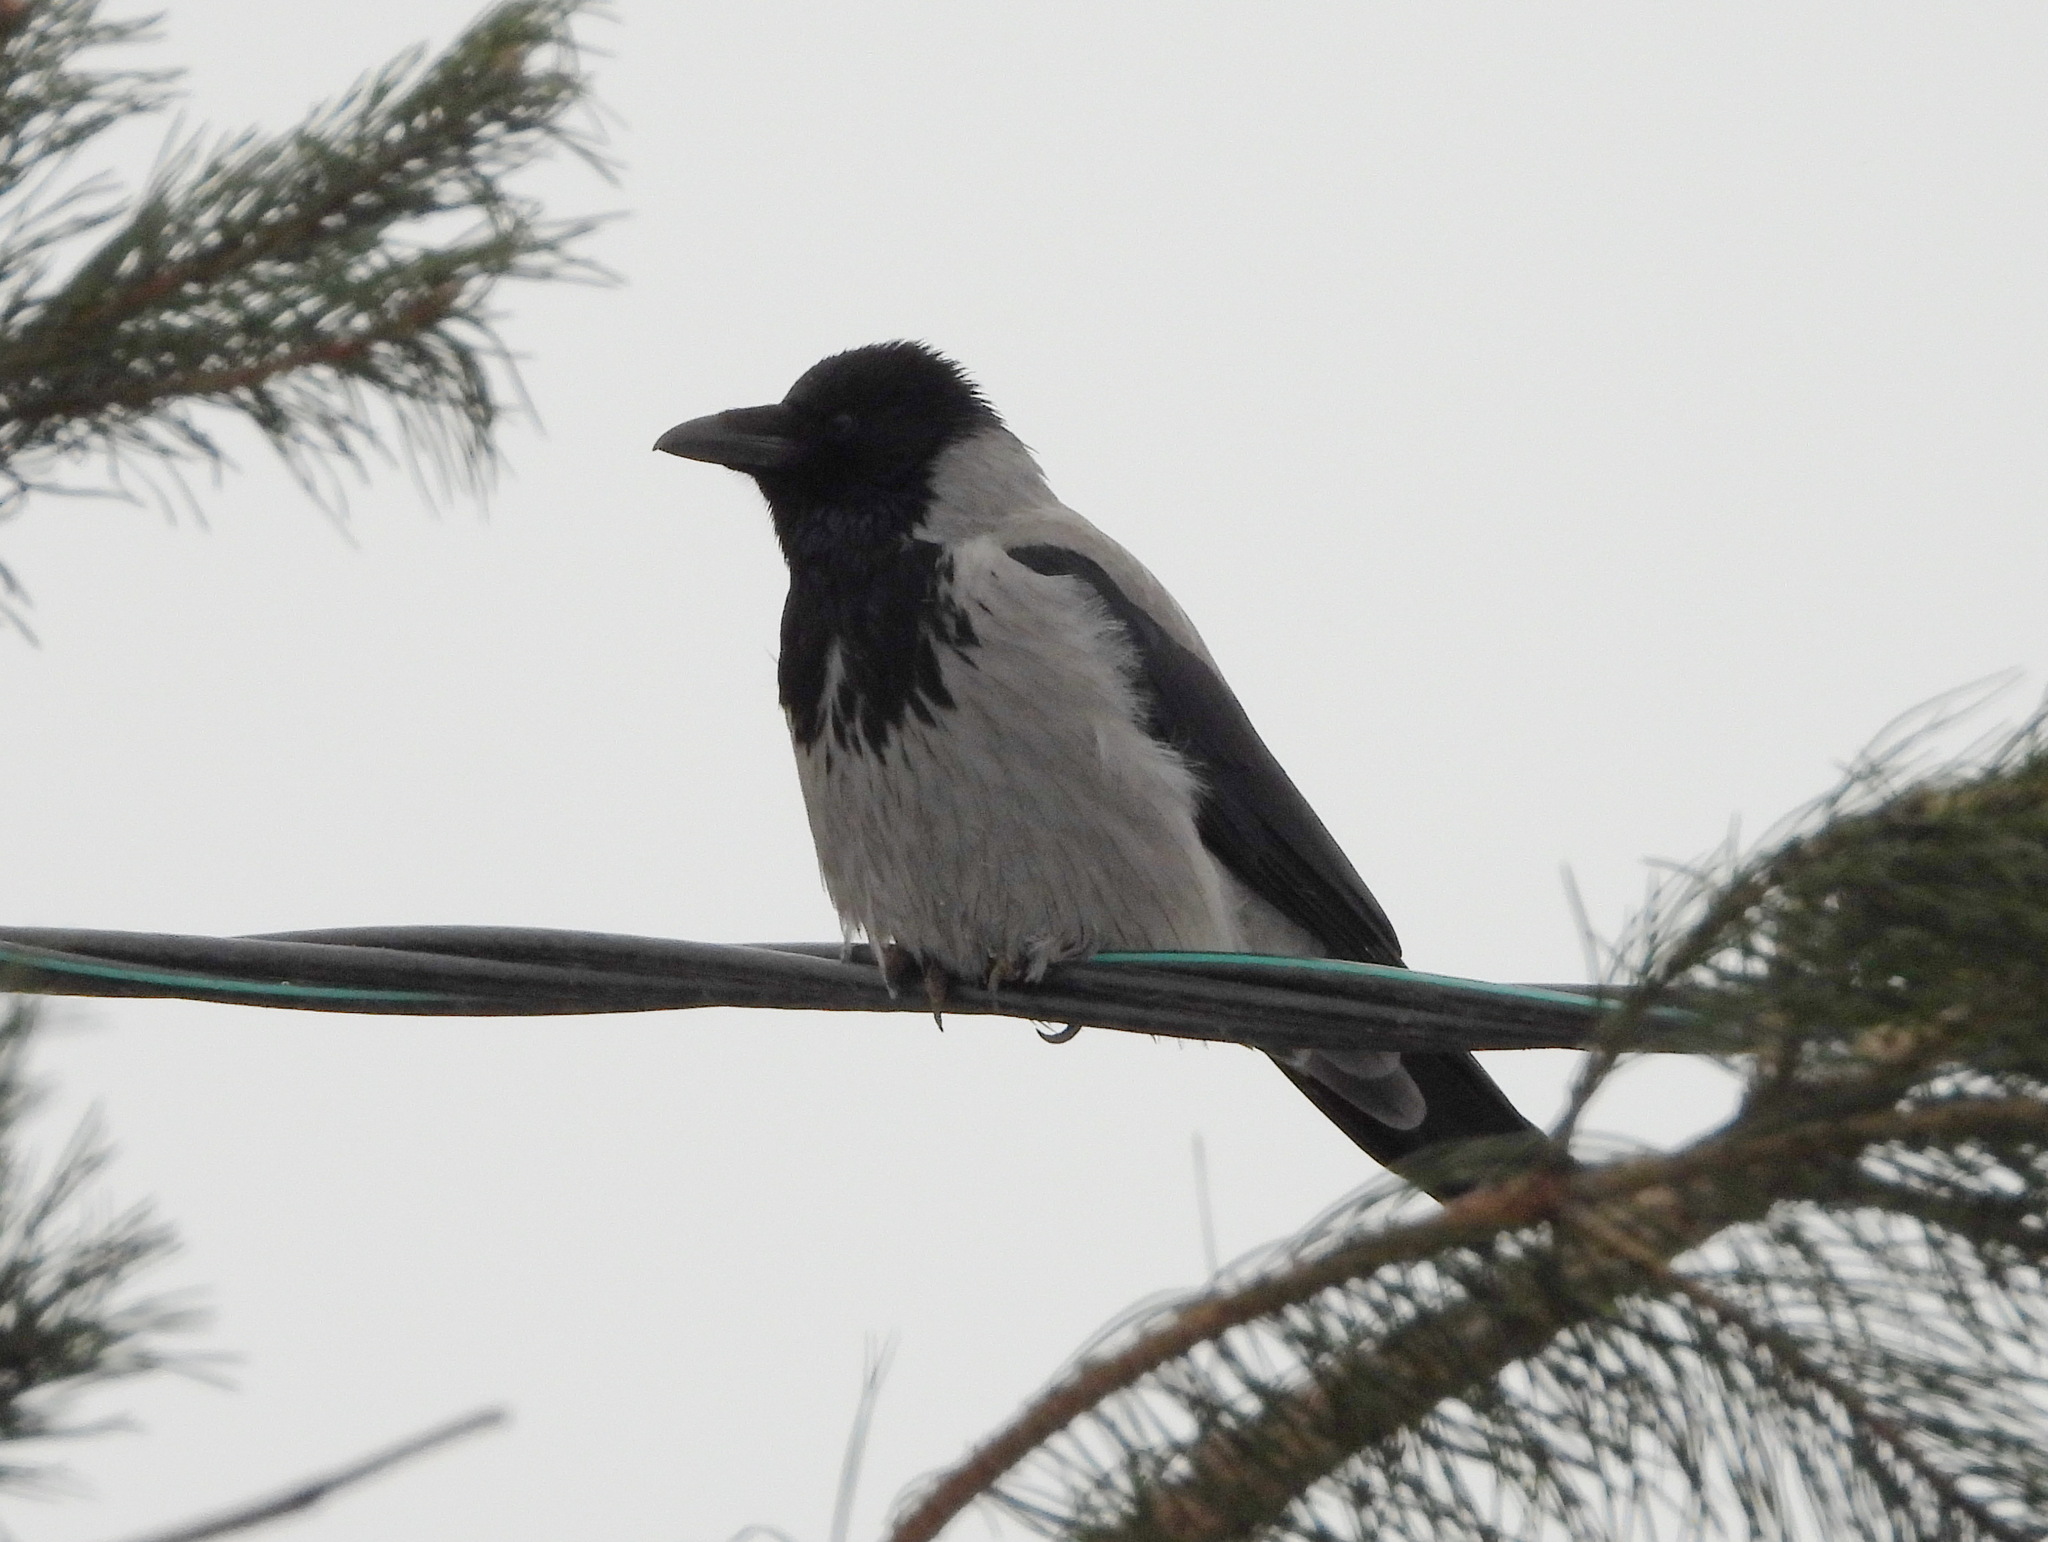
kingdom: Animalia
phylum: Chordata
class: Aves
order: Passeriformes
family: Corvidae
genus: Corvus
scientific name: Corvus cornix
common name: Hooded crow
